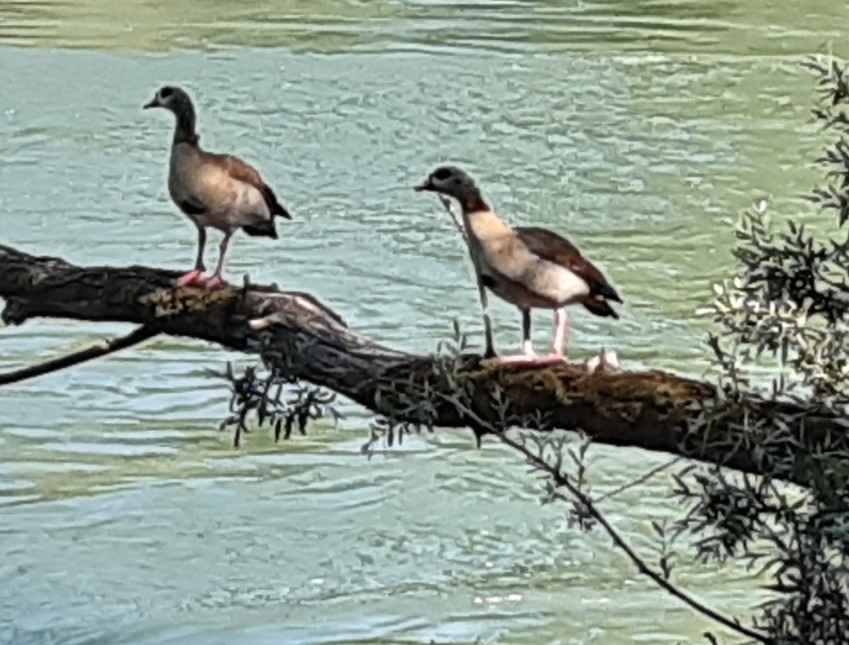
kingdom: Animalia
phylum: Chordata
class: Aves
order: Anseriformes
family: Anatidae
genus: Alopochen
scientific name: Alopochen aegyptiaca
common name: Egyptian goose
